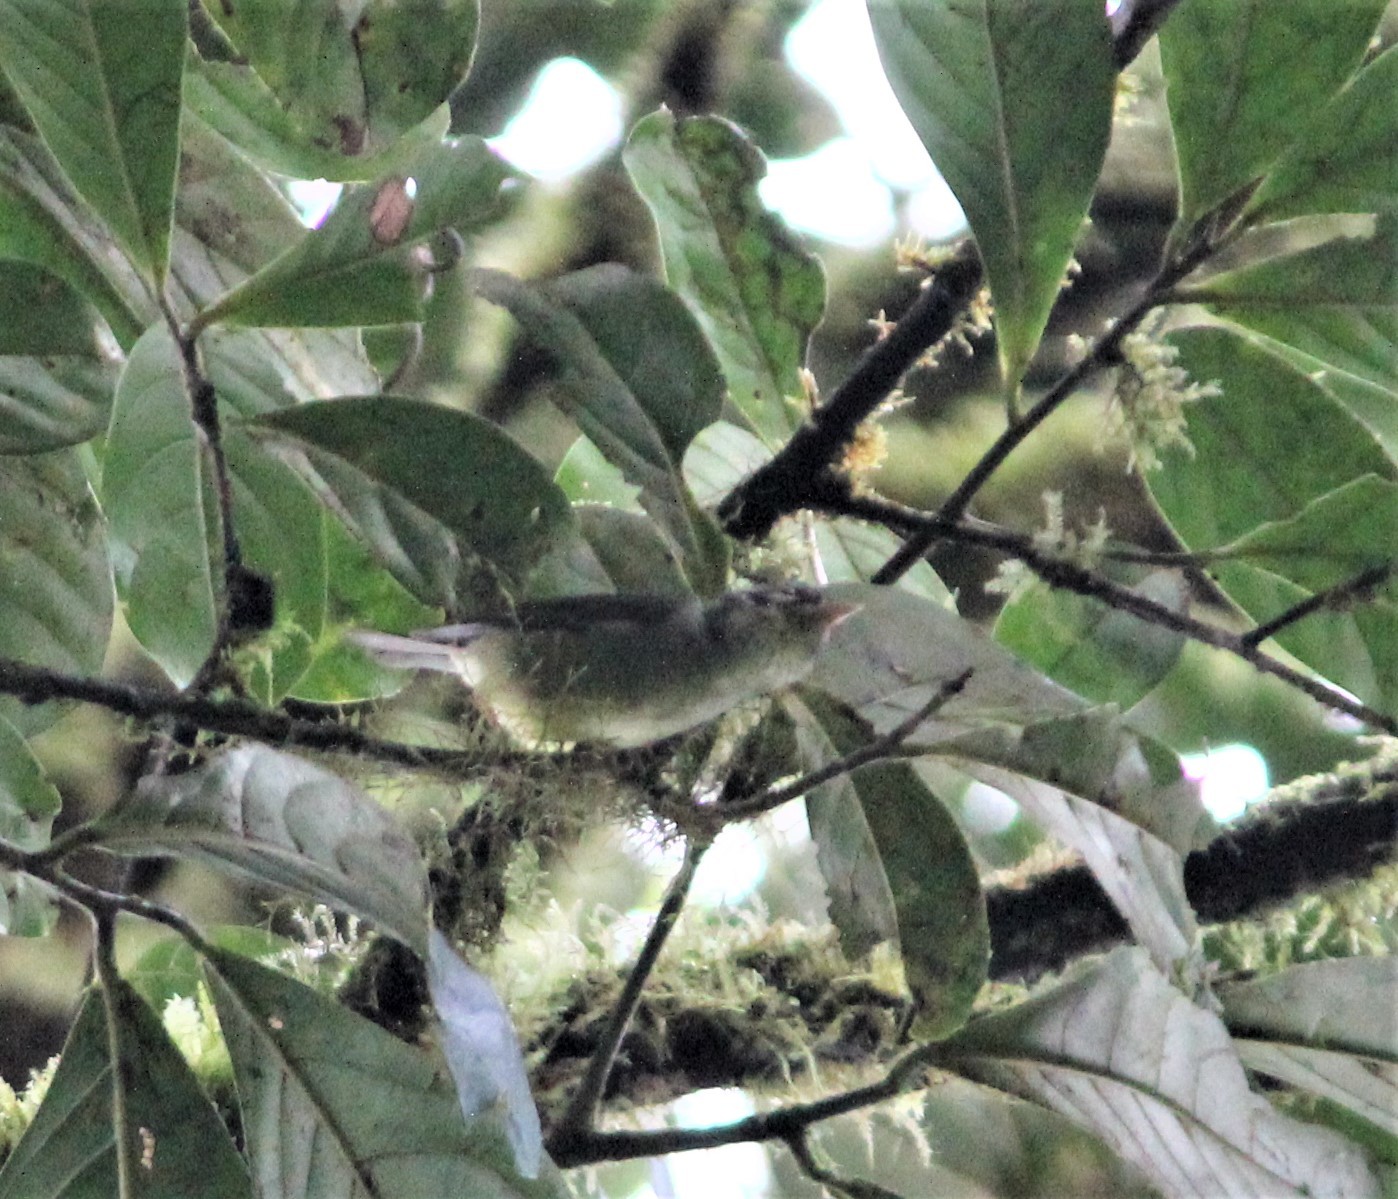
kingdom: Animalia
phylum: Chordata
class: Aves
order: Passeriformes
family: Parulidae
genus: Basileuterus
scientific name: Basileuterus melanotis
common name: Black-eared warbler
